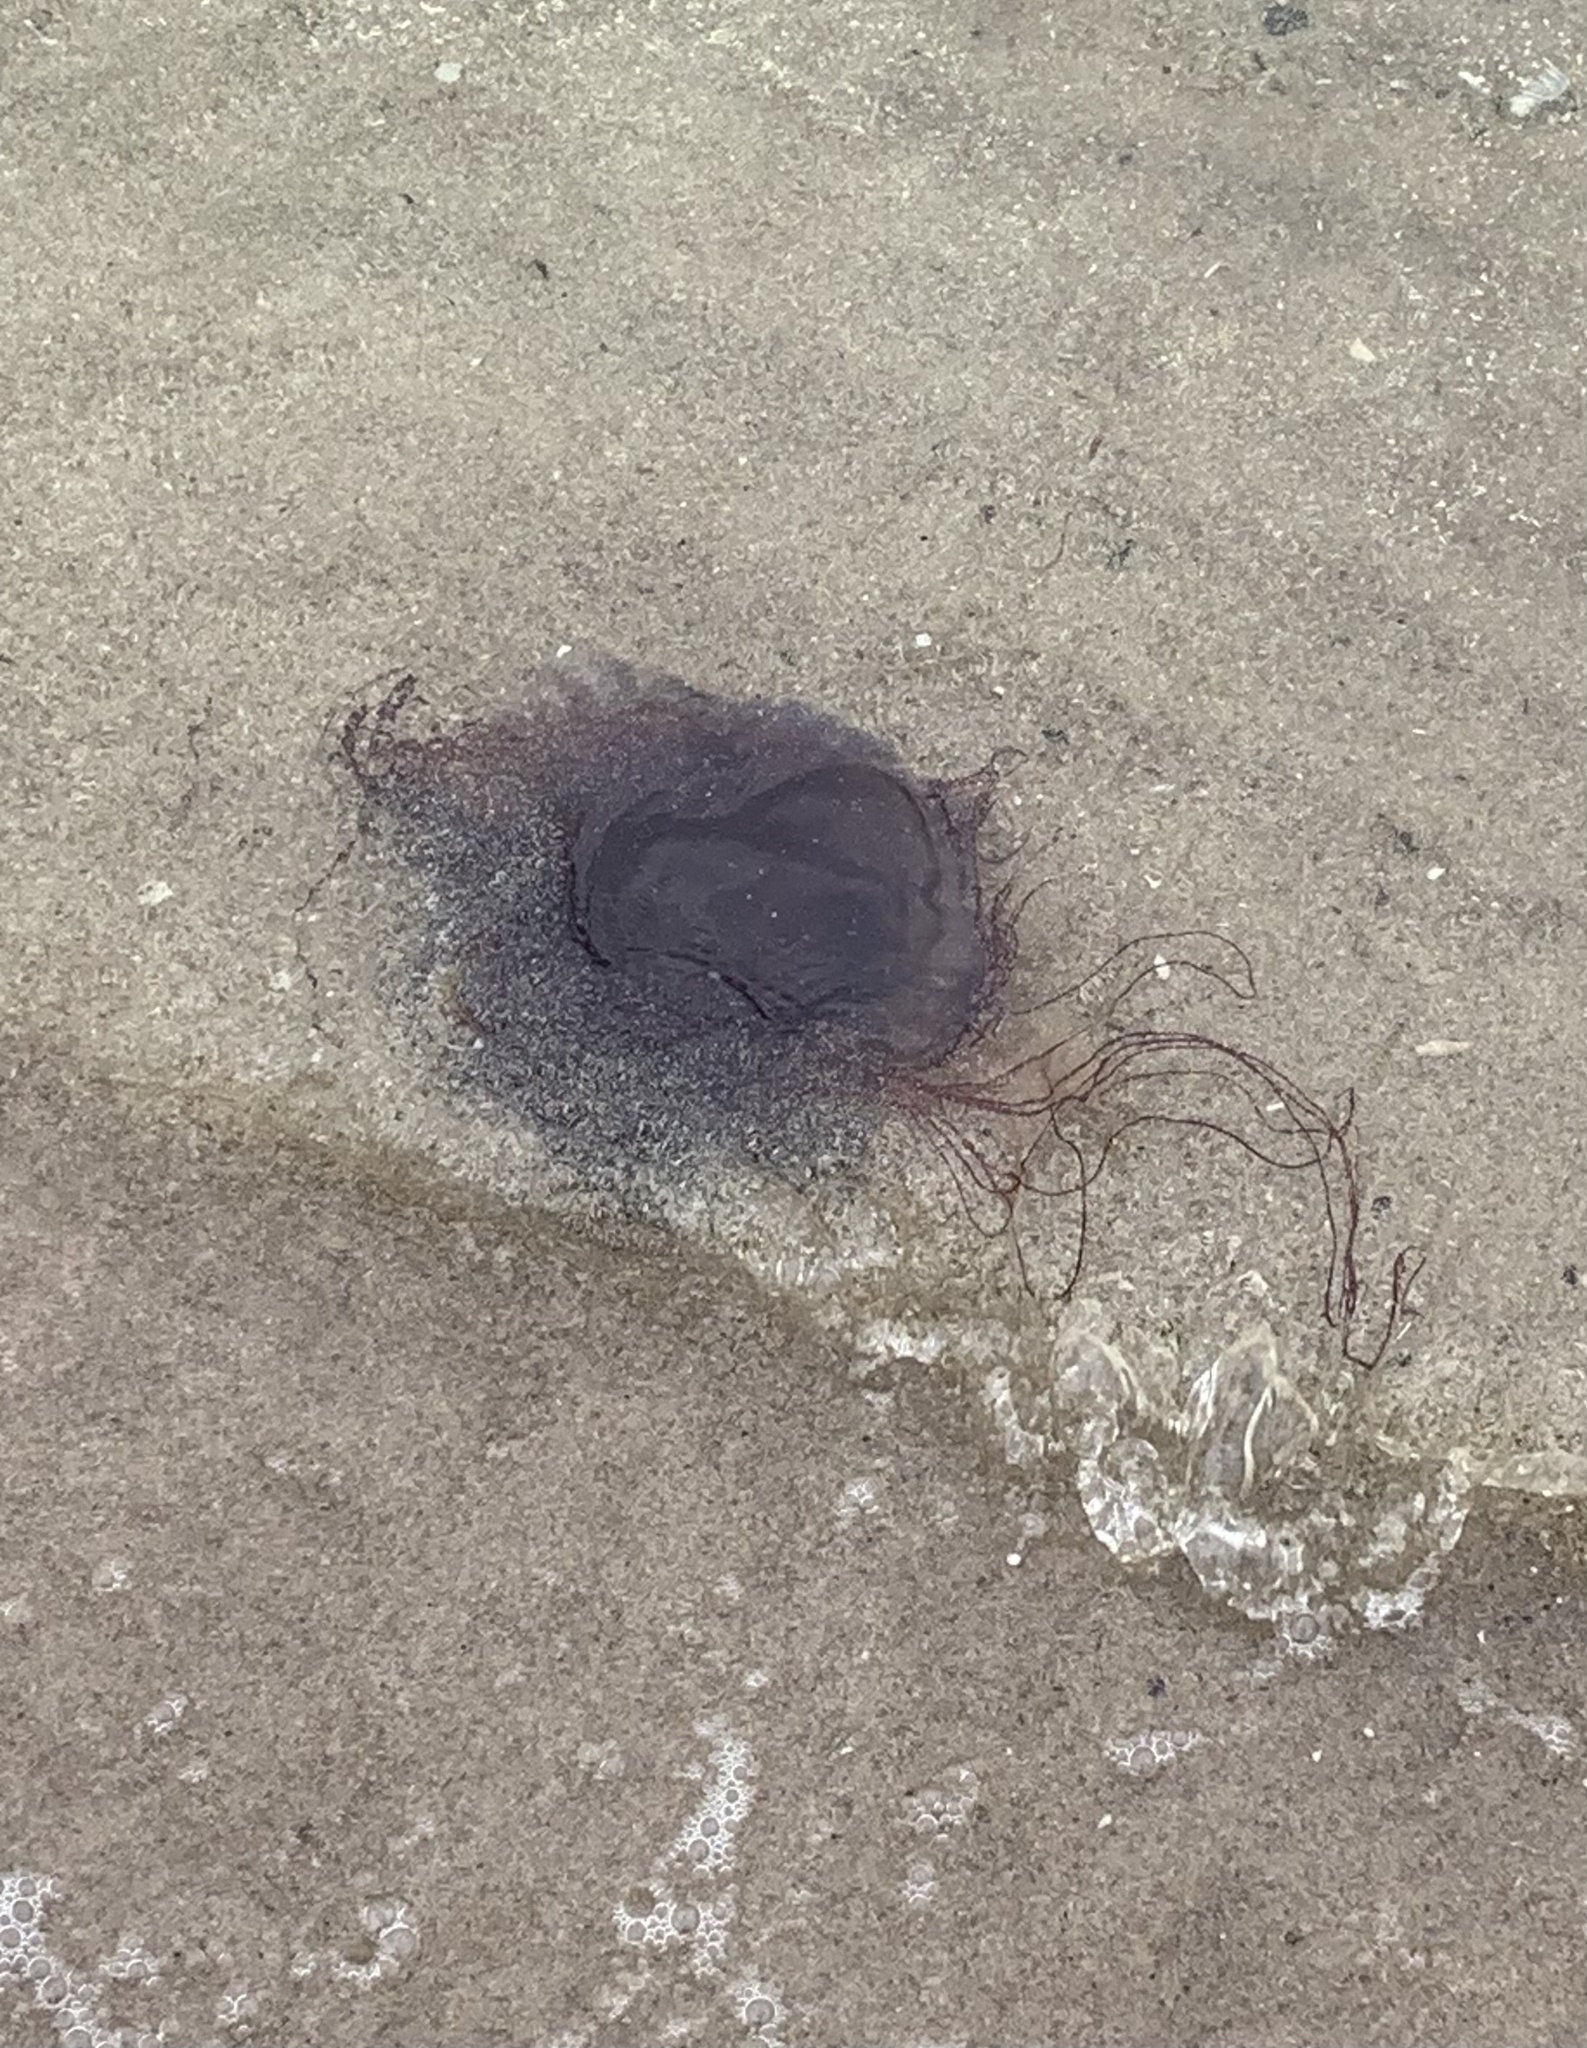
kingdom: Animalia
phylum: Cnidaria
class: Scyphozoa
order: Semaeostomeae
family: Cyaneidae
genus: Cyanea
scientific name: Cyanea
